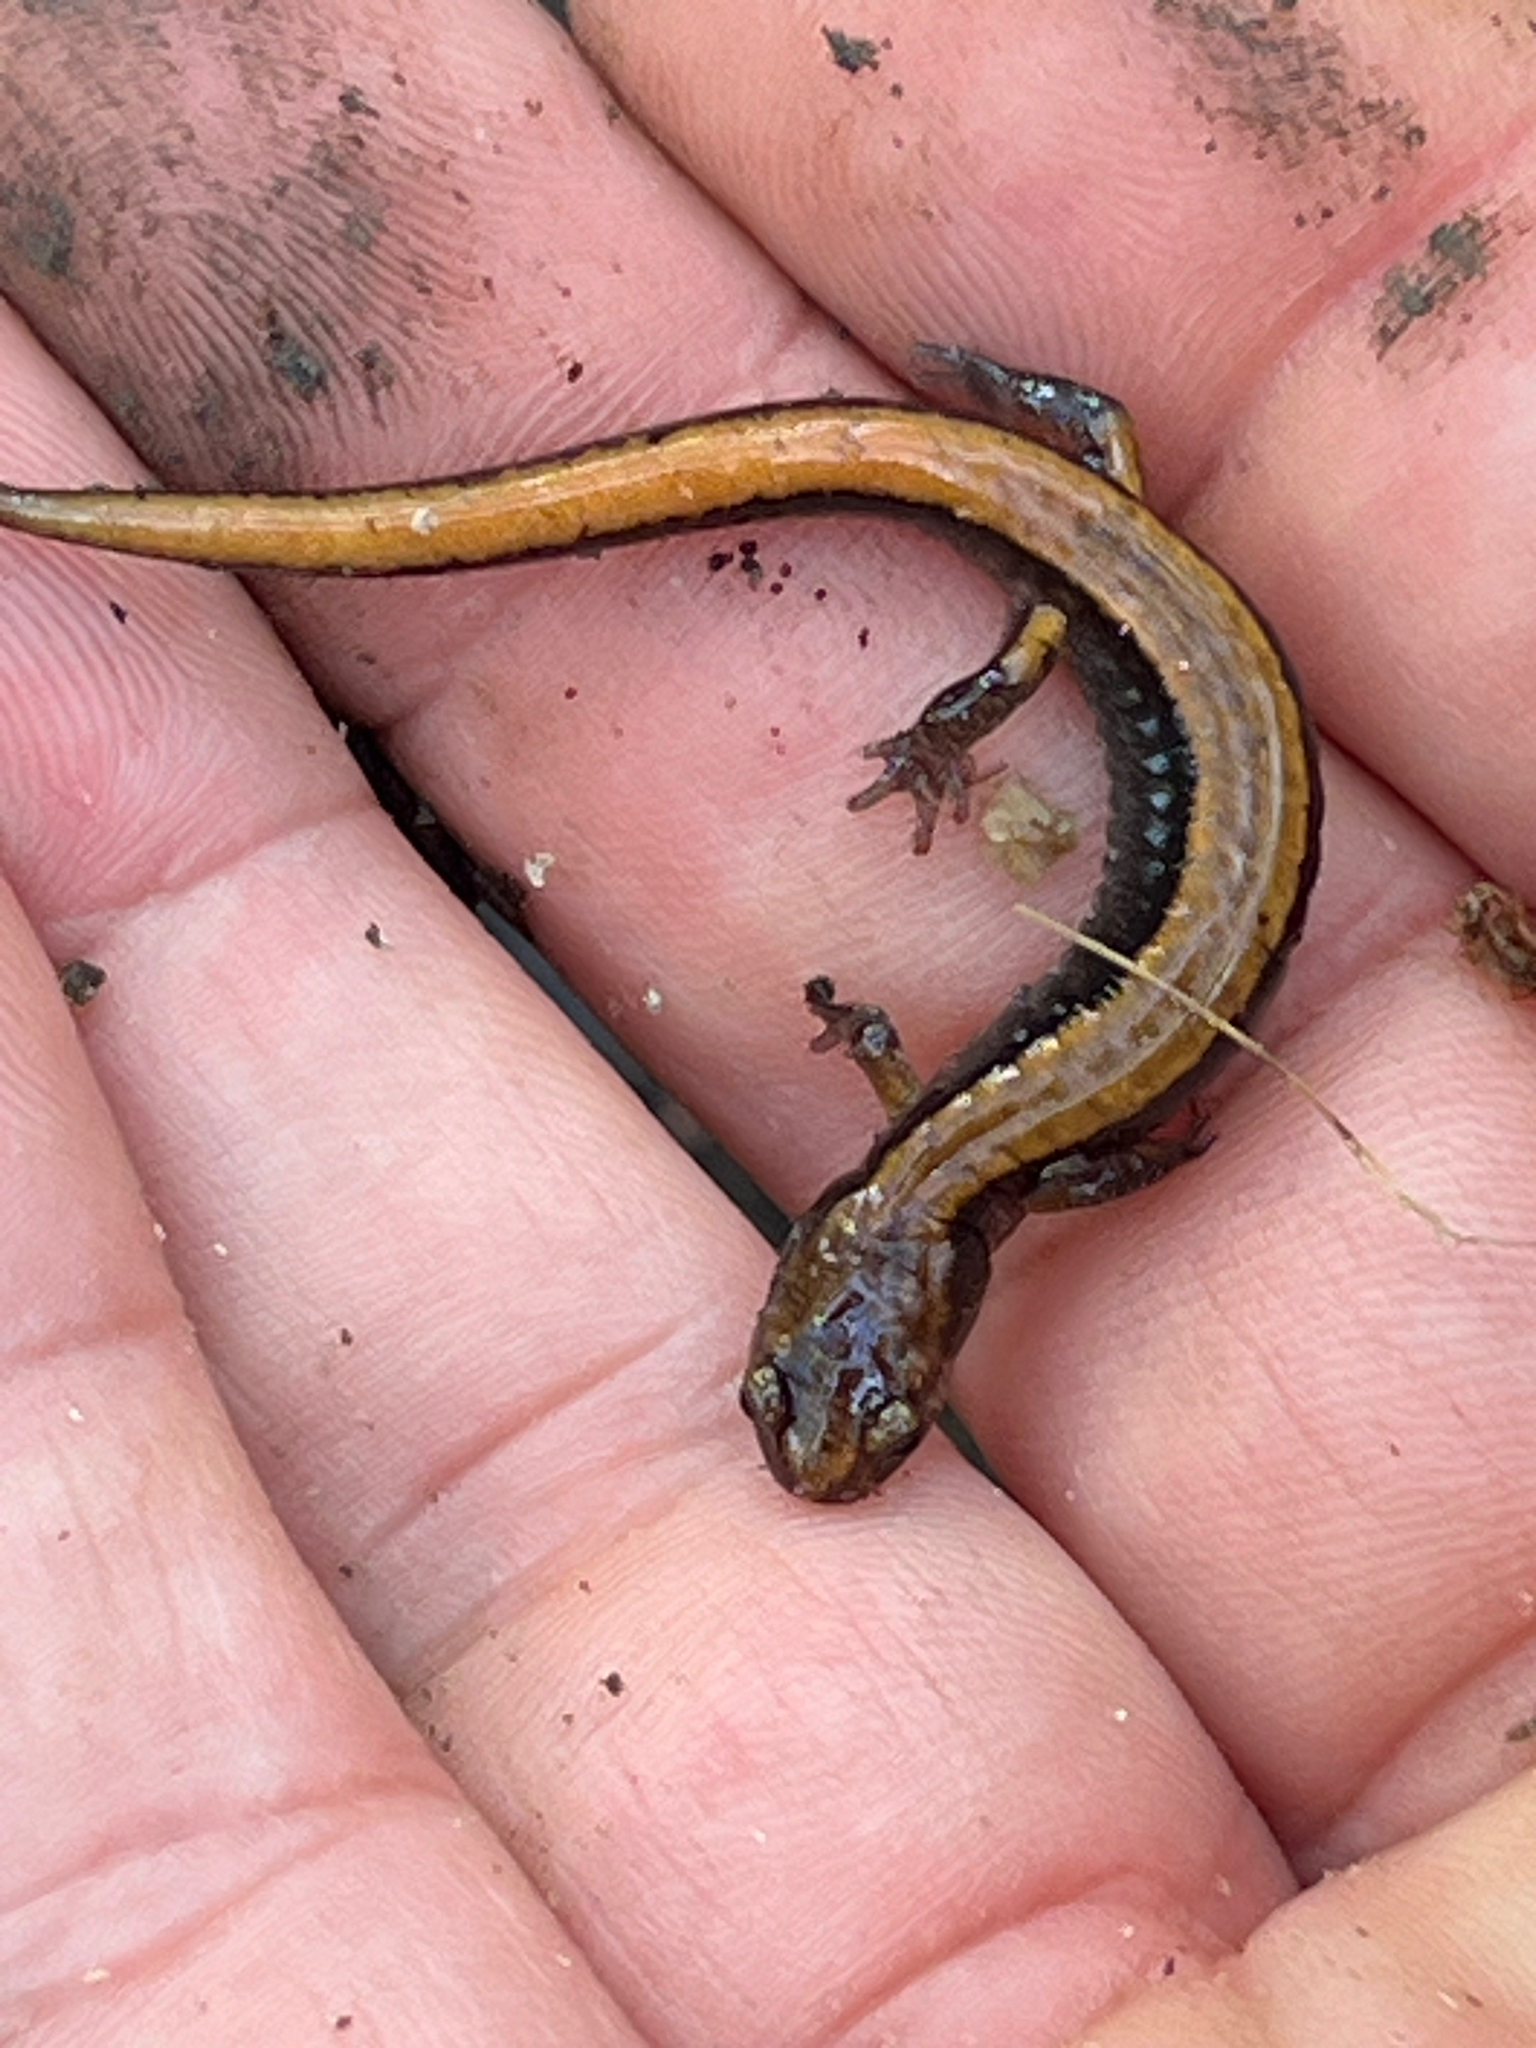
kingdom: Animalia
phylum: Chordata
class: Amphibia
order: Caudata
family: Plethodontidae
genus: Plethodon
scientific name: Plethodon vehiculum
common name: Western red-backed salamander
